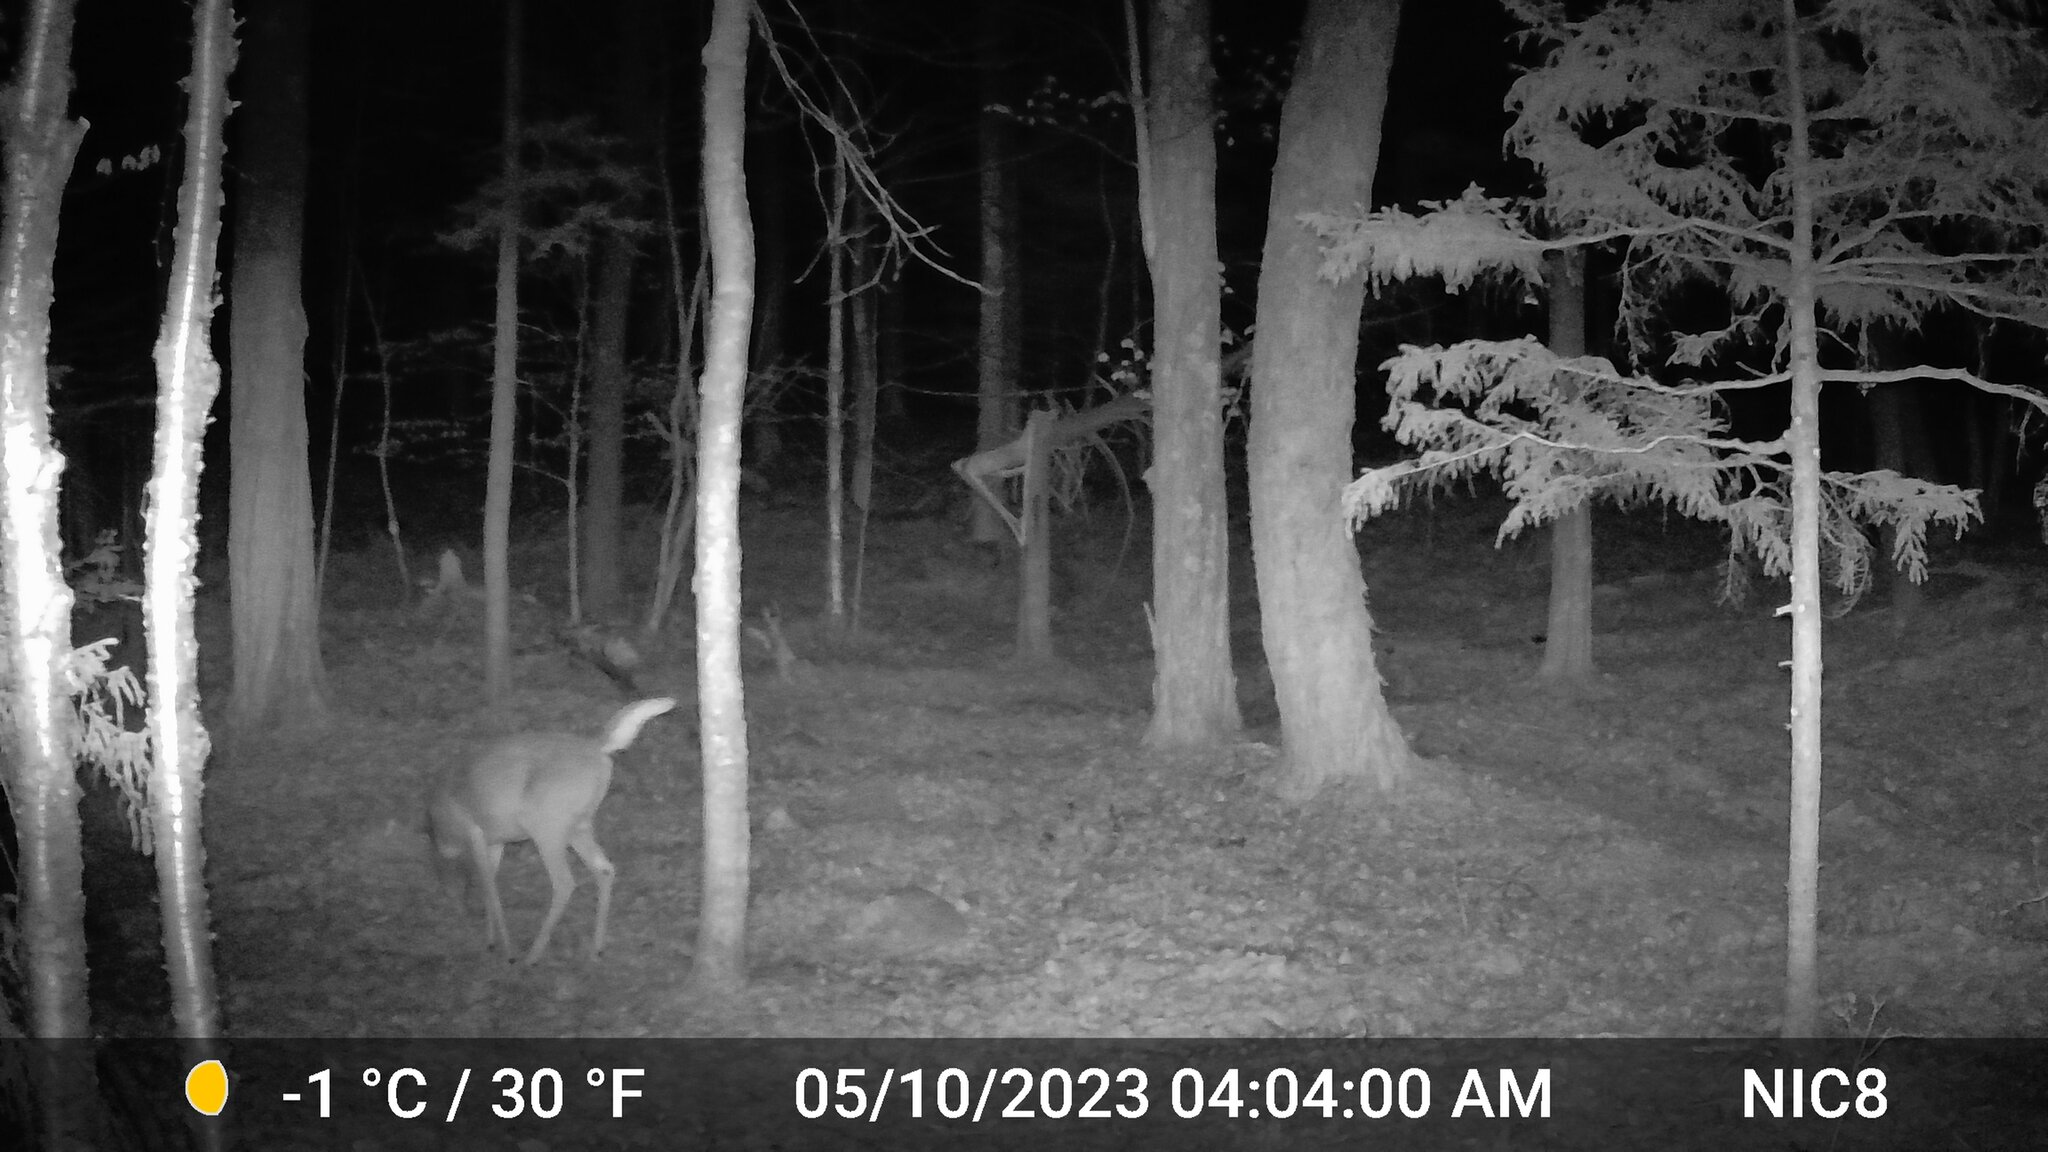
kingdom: Animalia
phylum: Chordata
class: Mammalia
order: Artiodactyla
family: Cervidae
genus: Odocoileus
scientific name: Odocoileus virginianus
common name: White-tailed deer
